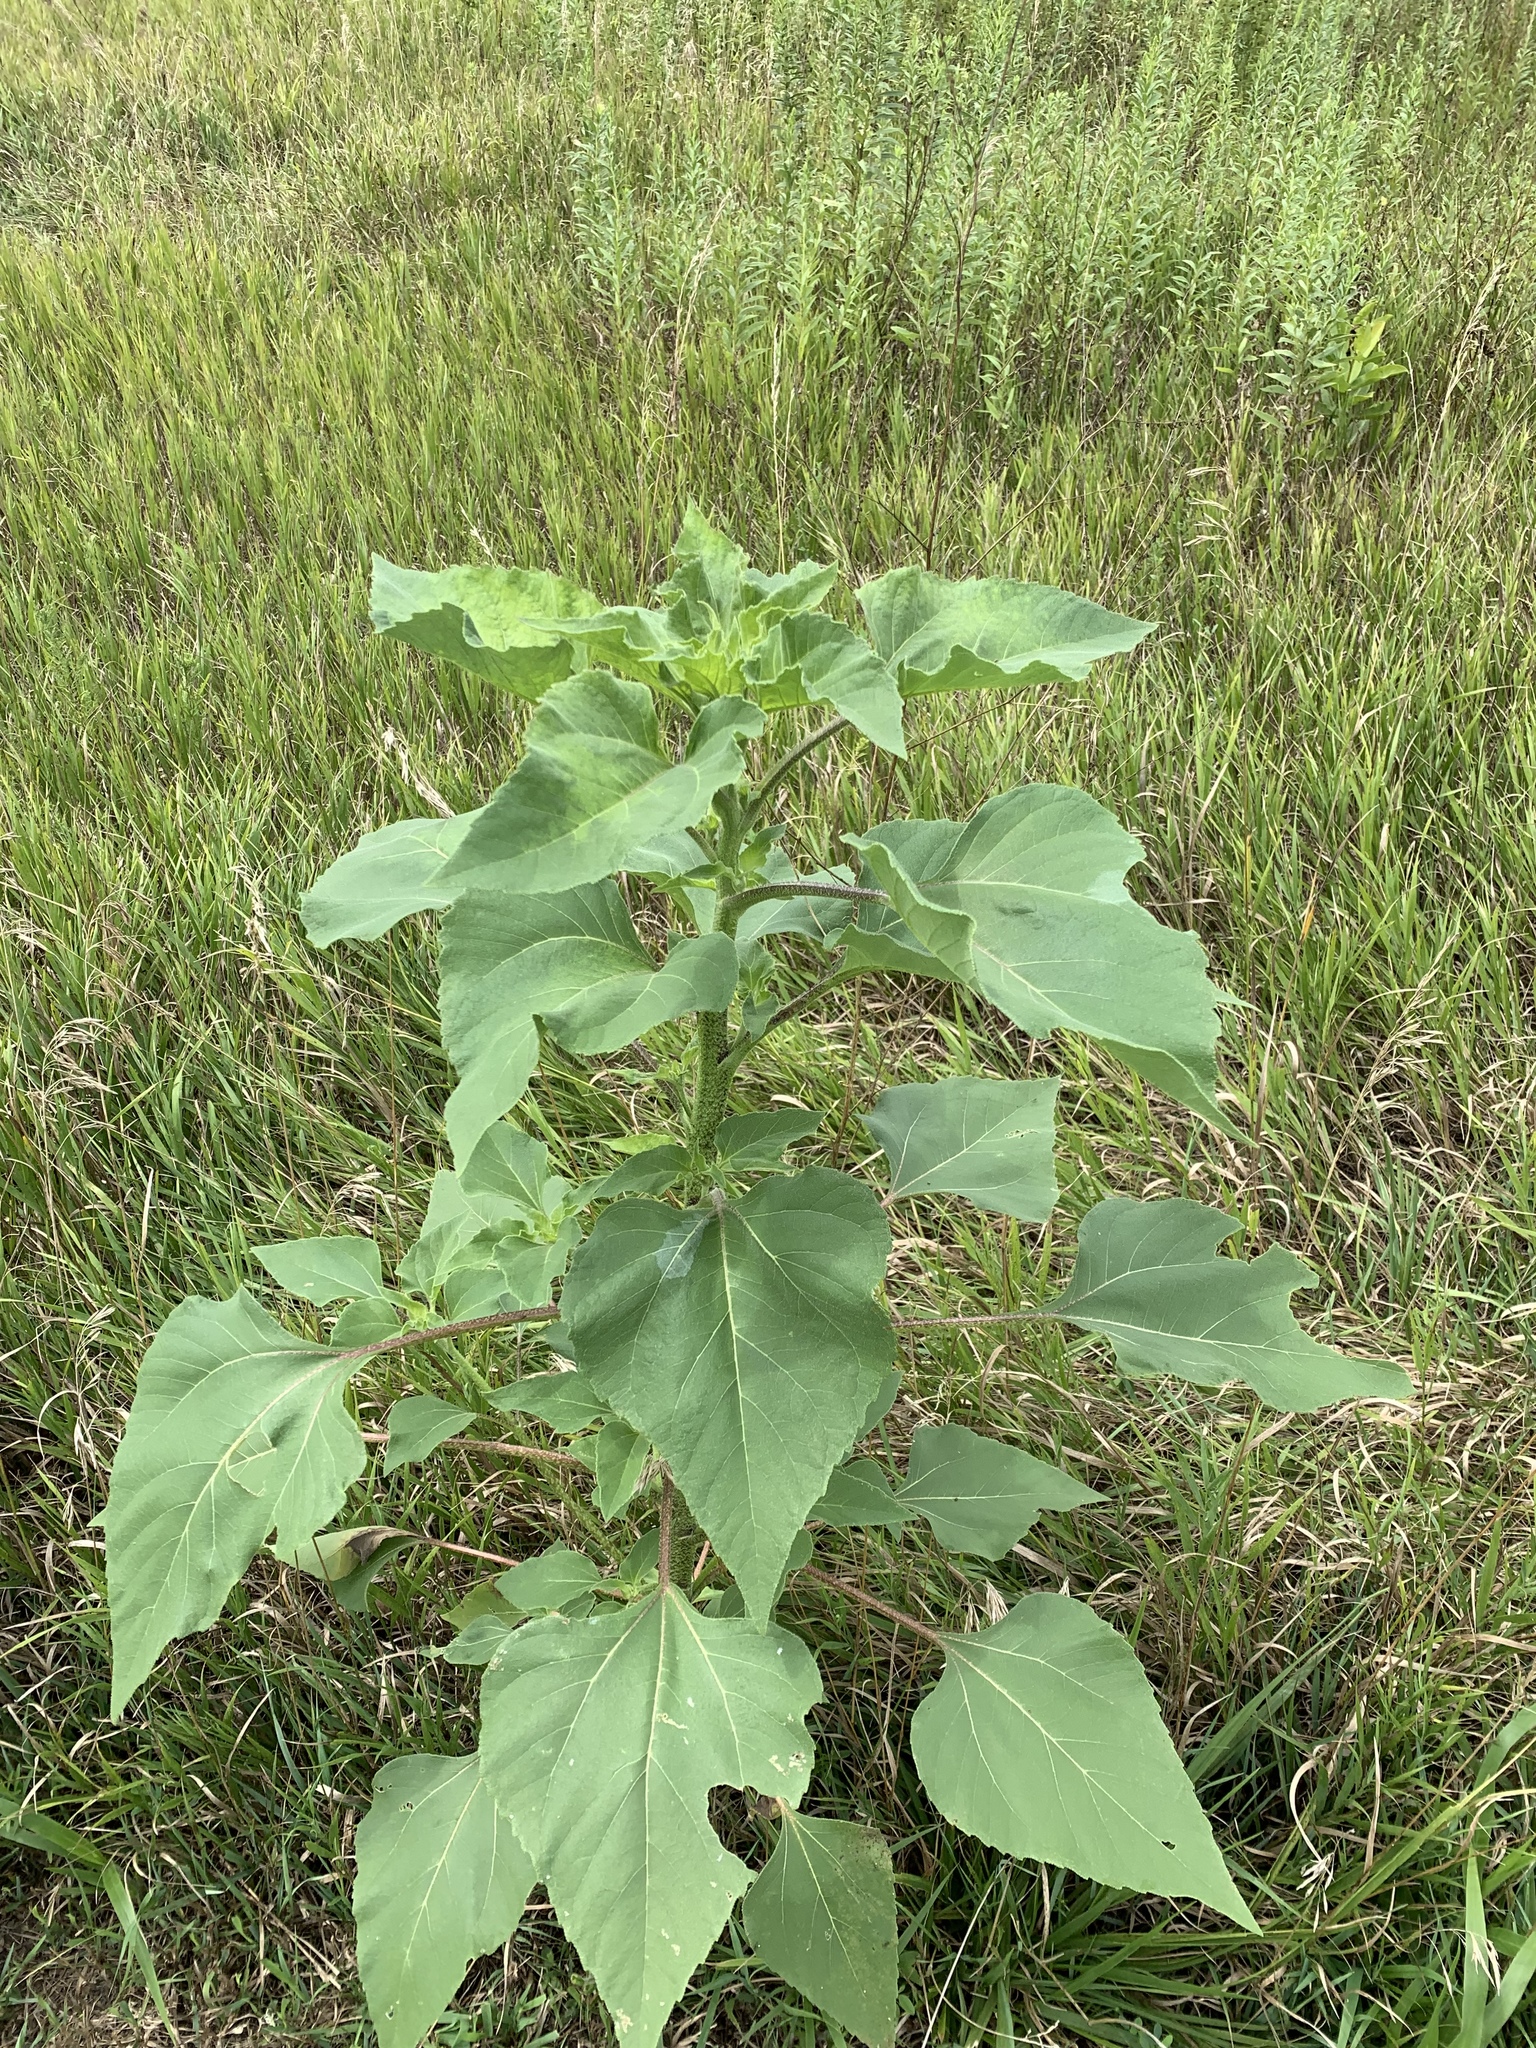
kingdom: Plantae
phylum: Tracheophyta
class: Magnoliopsida
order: Asterales
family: Asteraceae
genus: Helianthus
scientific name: Helianthus annuus
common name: Sunflower
